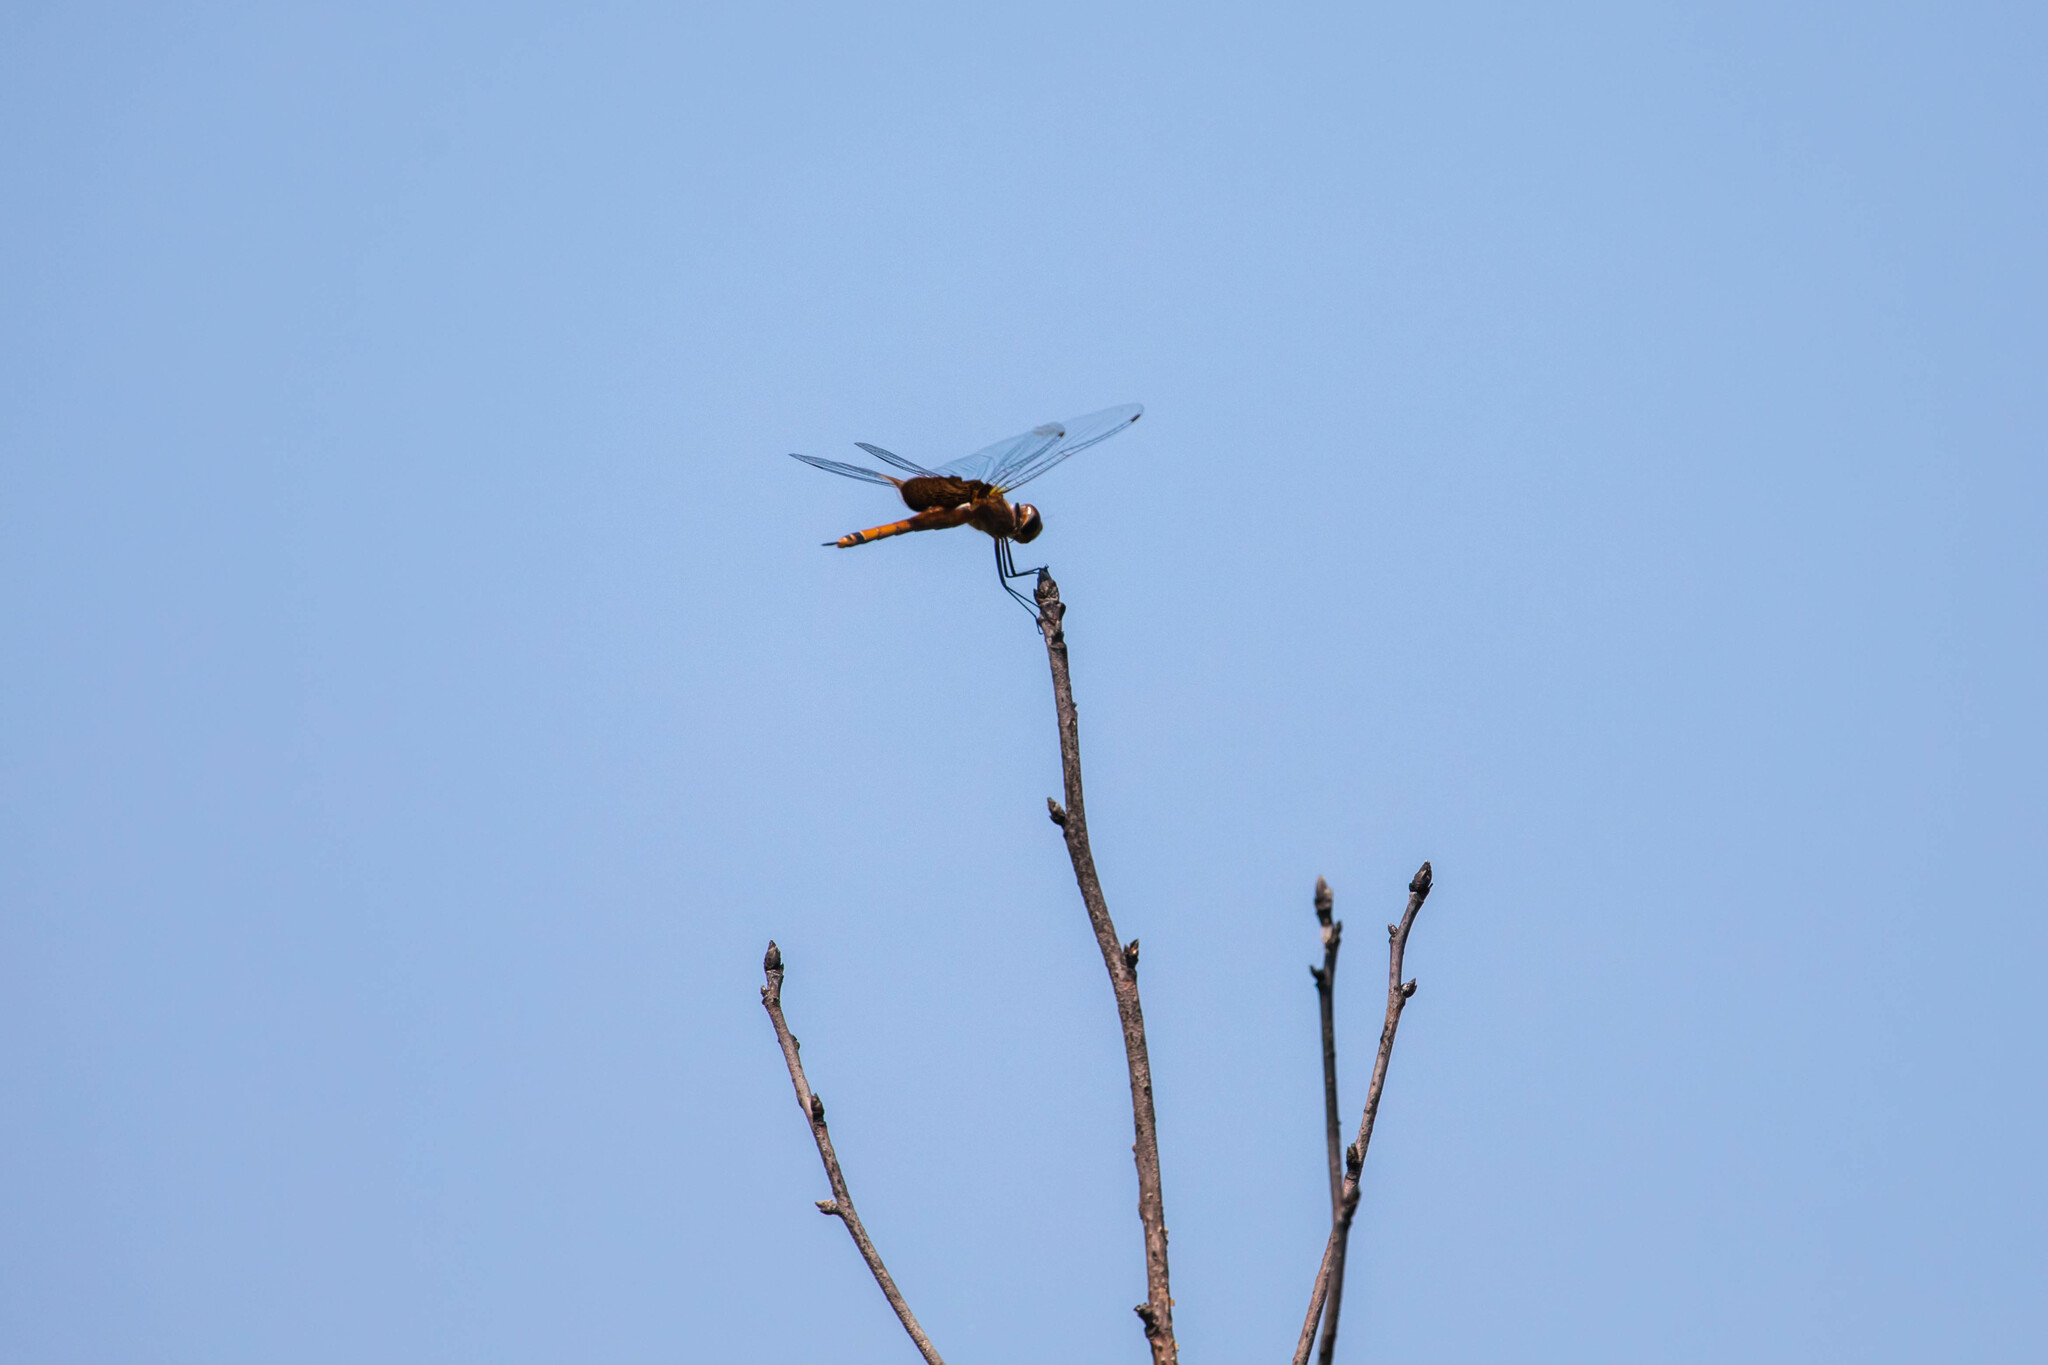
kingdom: Animalia
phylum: Arthropoda
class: Insecta
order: Odonata
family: Libellulidae
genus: Tramea
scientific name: Tramea carolina
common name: Carolina saddlebags
